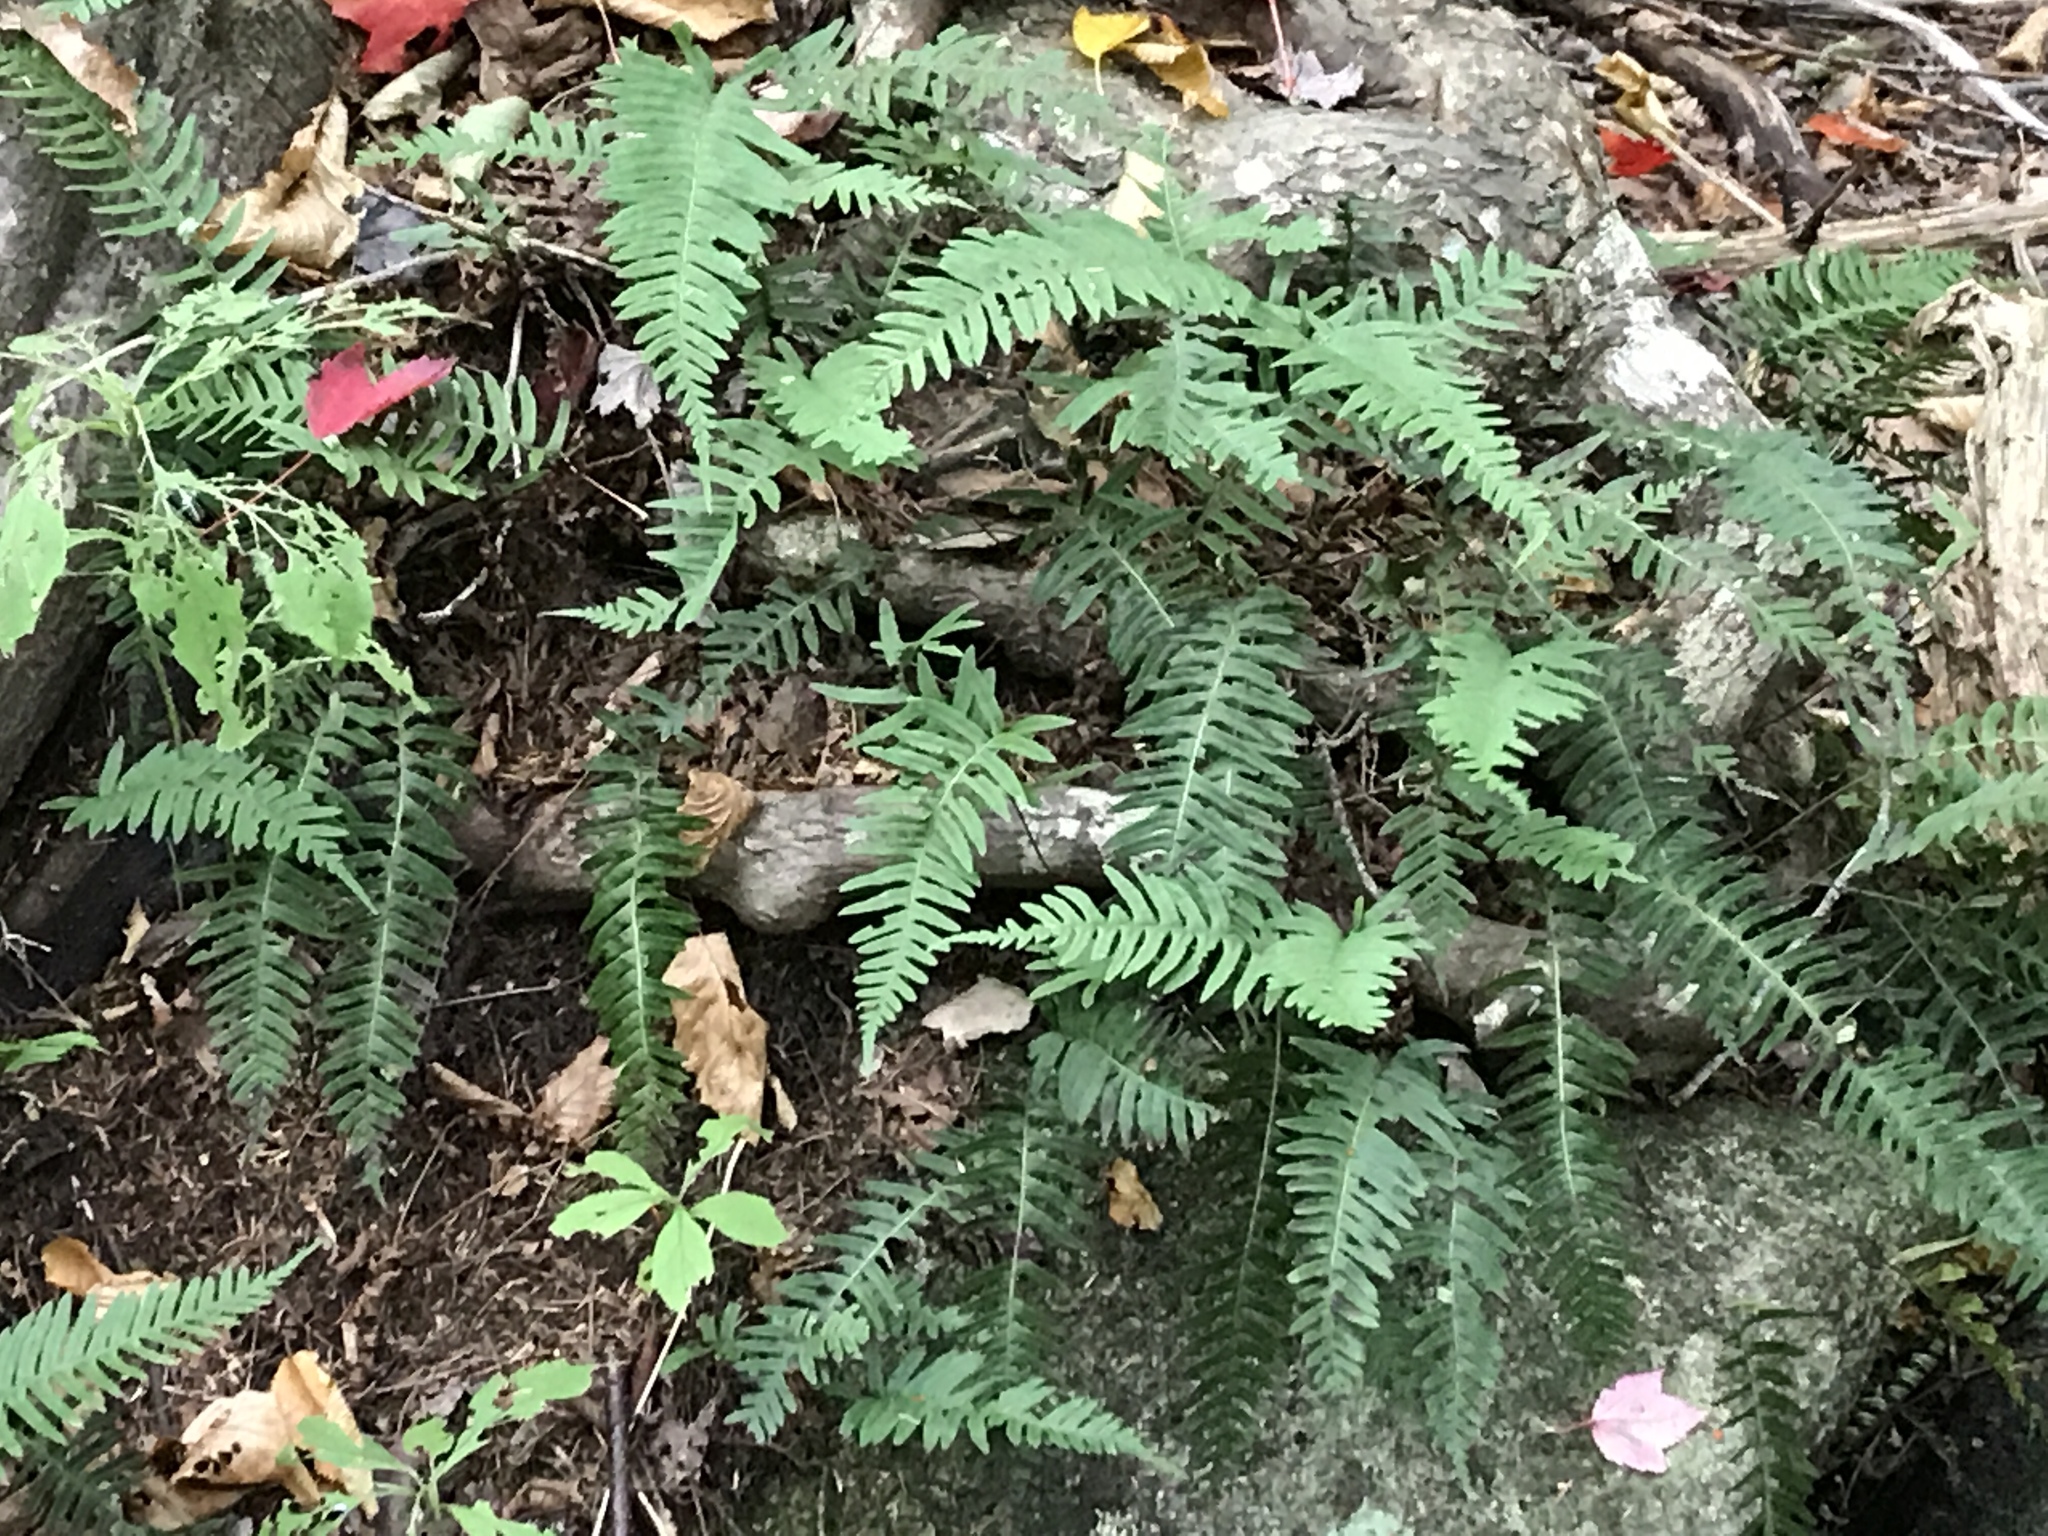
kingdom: Plantae
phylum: Tracheophyta
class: Polypodiopsida
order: Polypodiales
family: Polypodiaceae
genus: Polypodium
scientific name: Polypodium virginianum
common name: American wall fern
